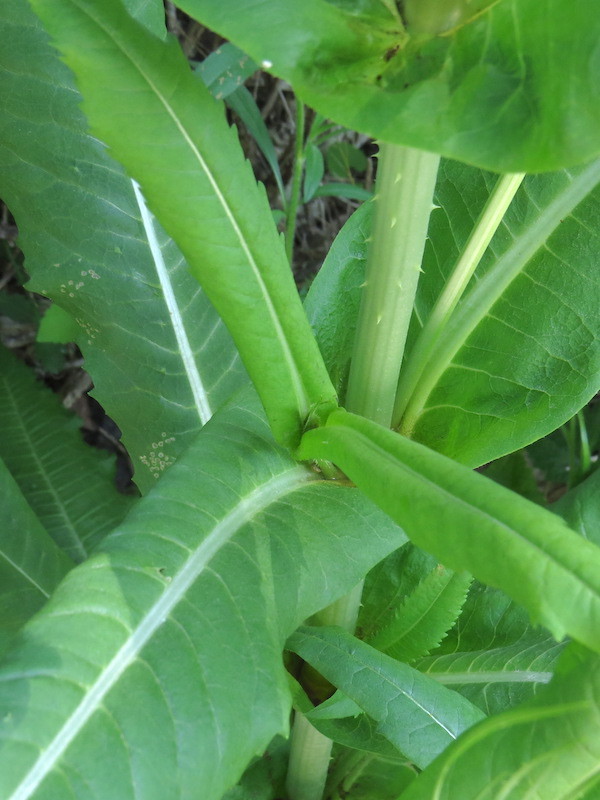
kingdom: Plantae
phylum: Tracheophyta
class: Magnoliopsida
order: Dipsacales
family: Caprifoliaceae
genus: Dipsacus
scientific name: Dipsacus fullonum
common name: Teasel
